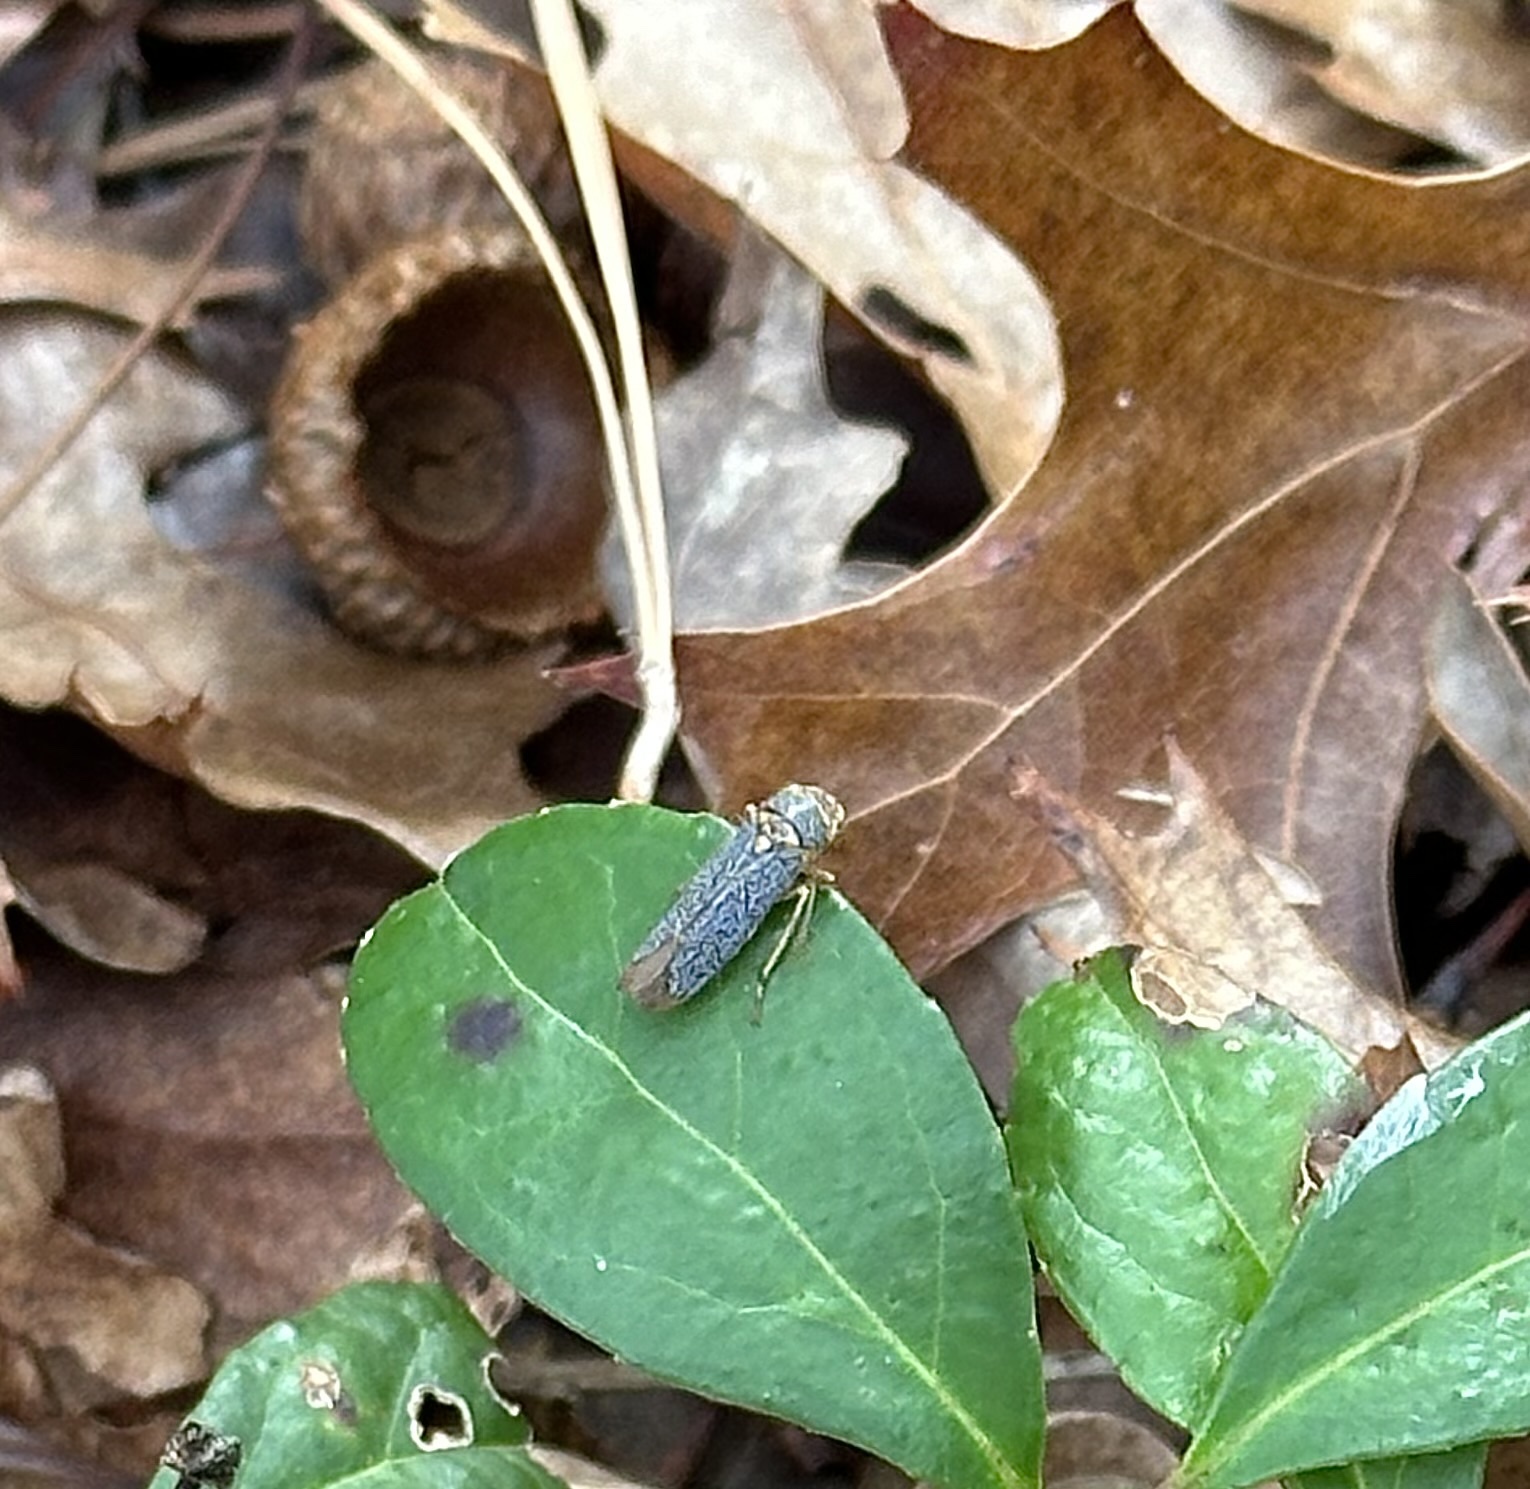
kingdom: Animalia
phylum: Arthropoda
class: Insecta
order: Hemiptera
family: Cicadellidae
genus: Oncometopia
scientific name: Oncometopia orbona
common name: Broad-headed sharpshooter
